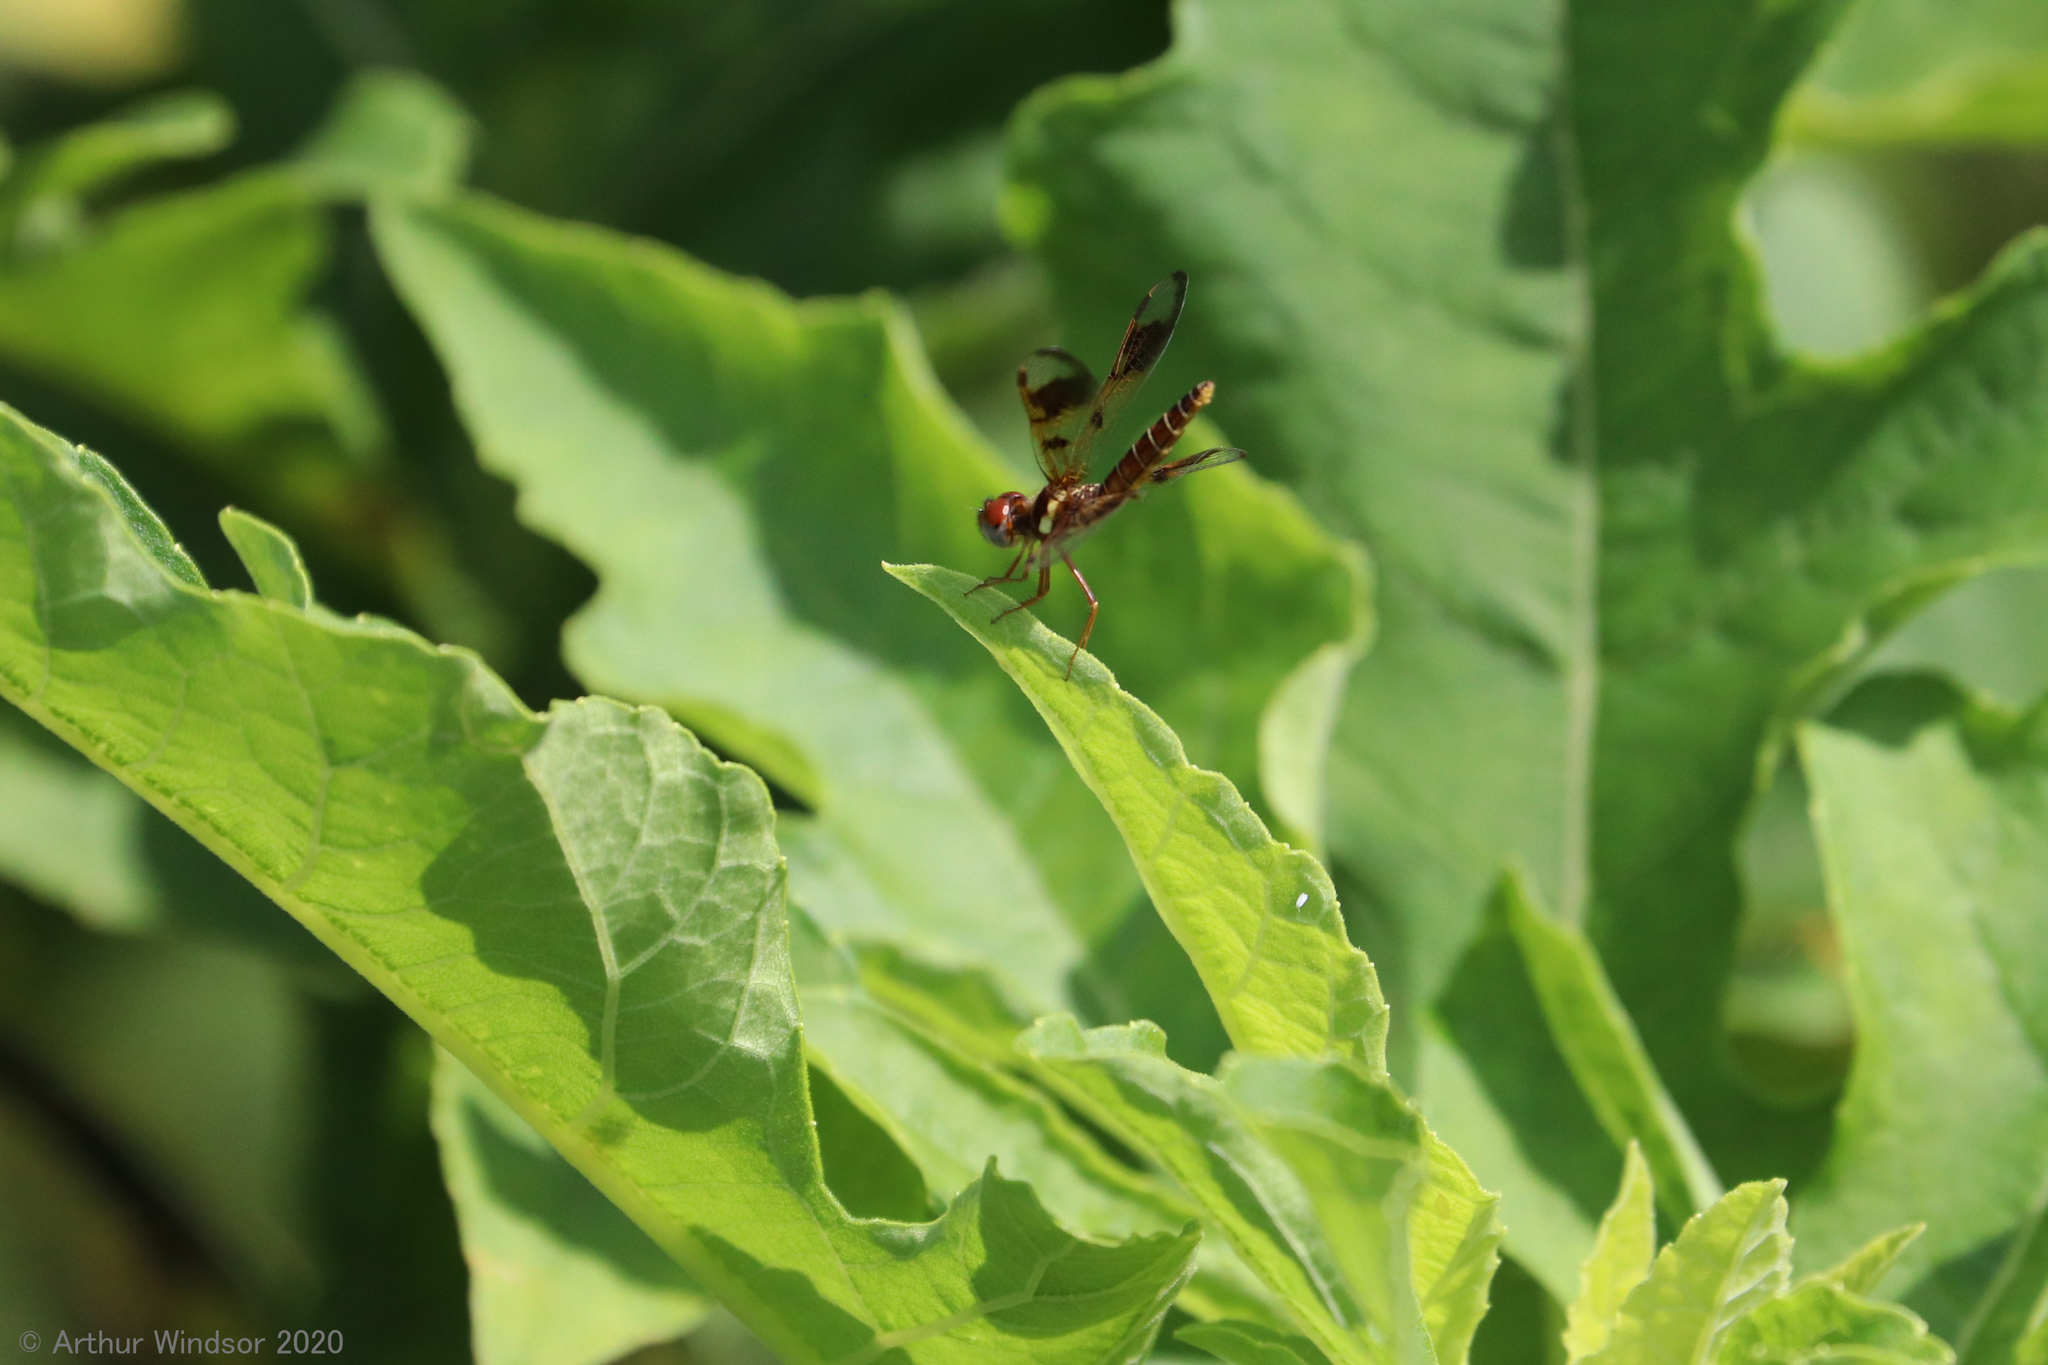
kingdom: Animalia
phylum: Arthropoda
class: Insecta
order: Odonata
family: Libellulidae
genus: Perithemis
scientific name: Perithemis tenera
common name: Eastern amberwing
